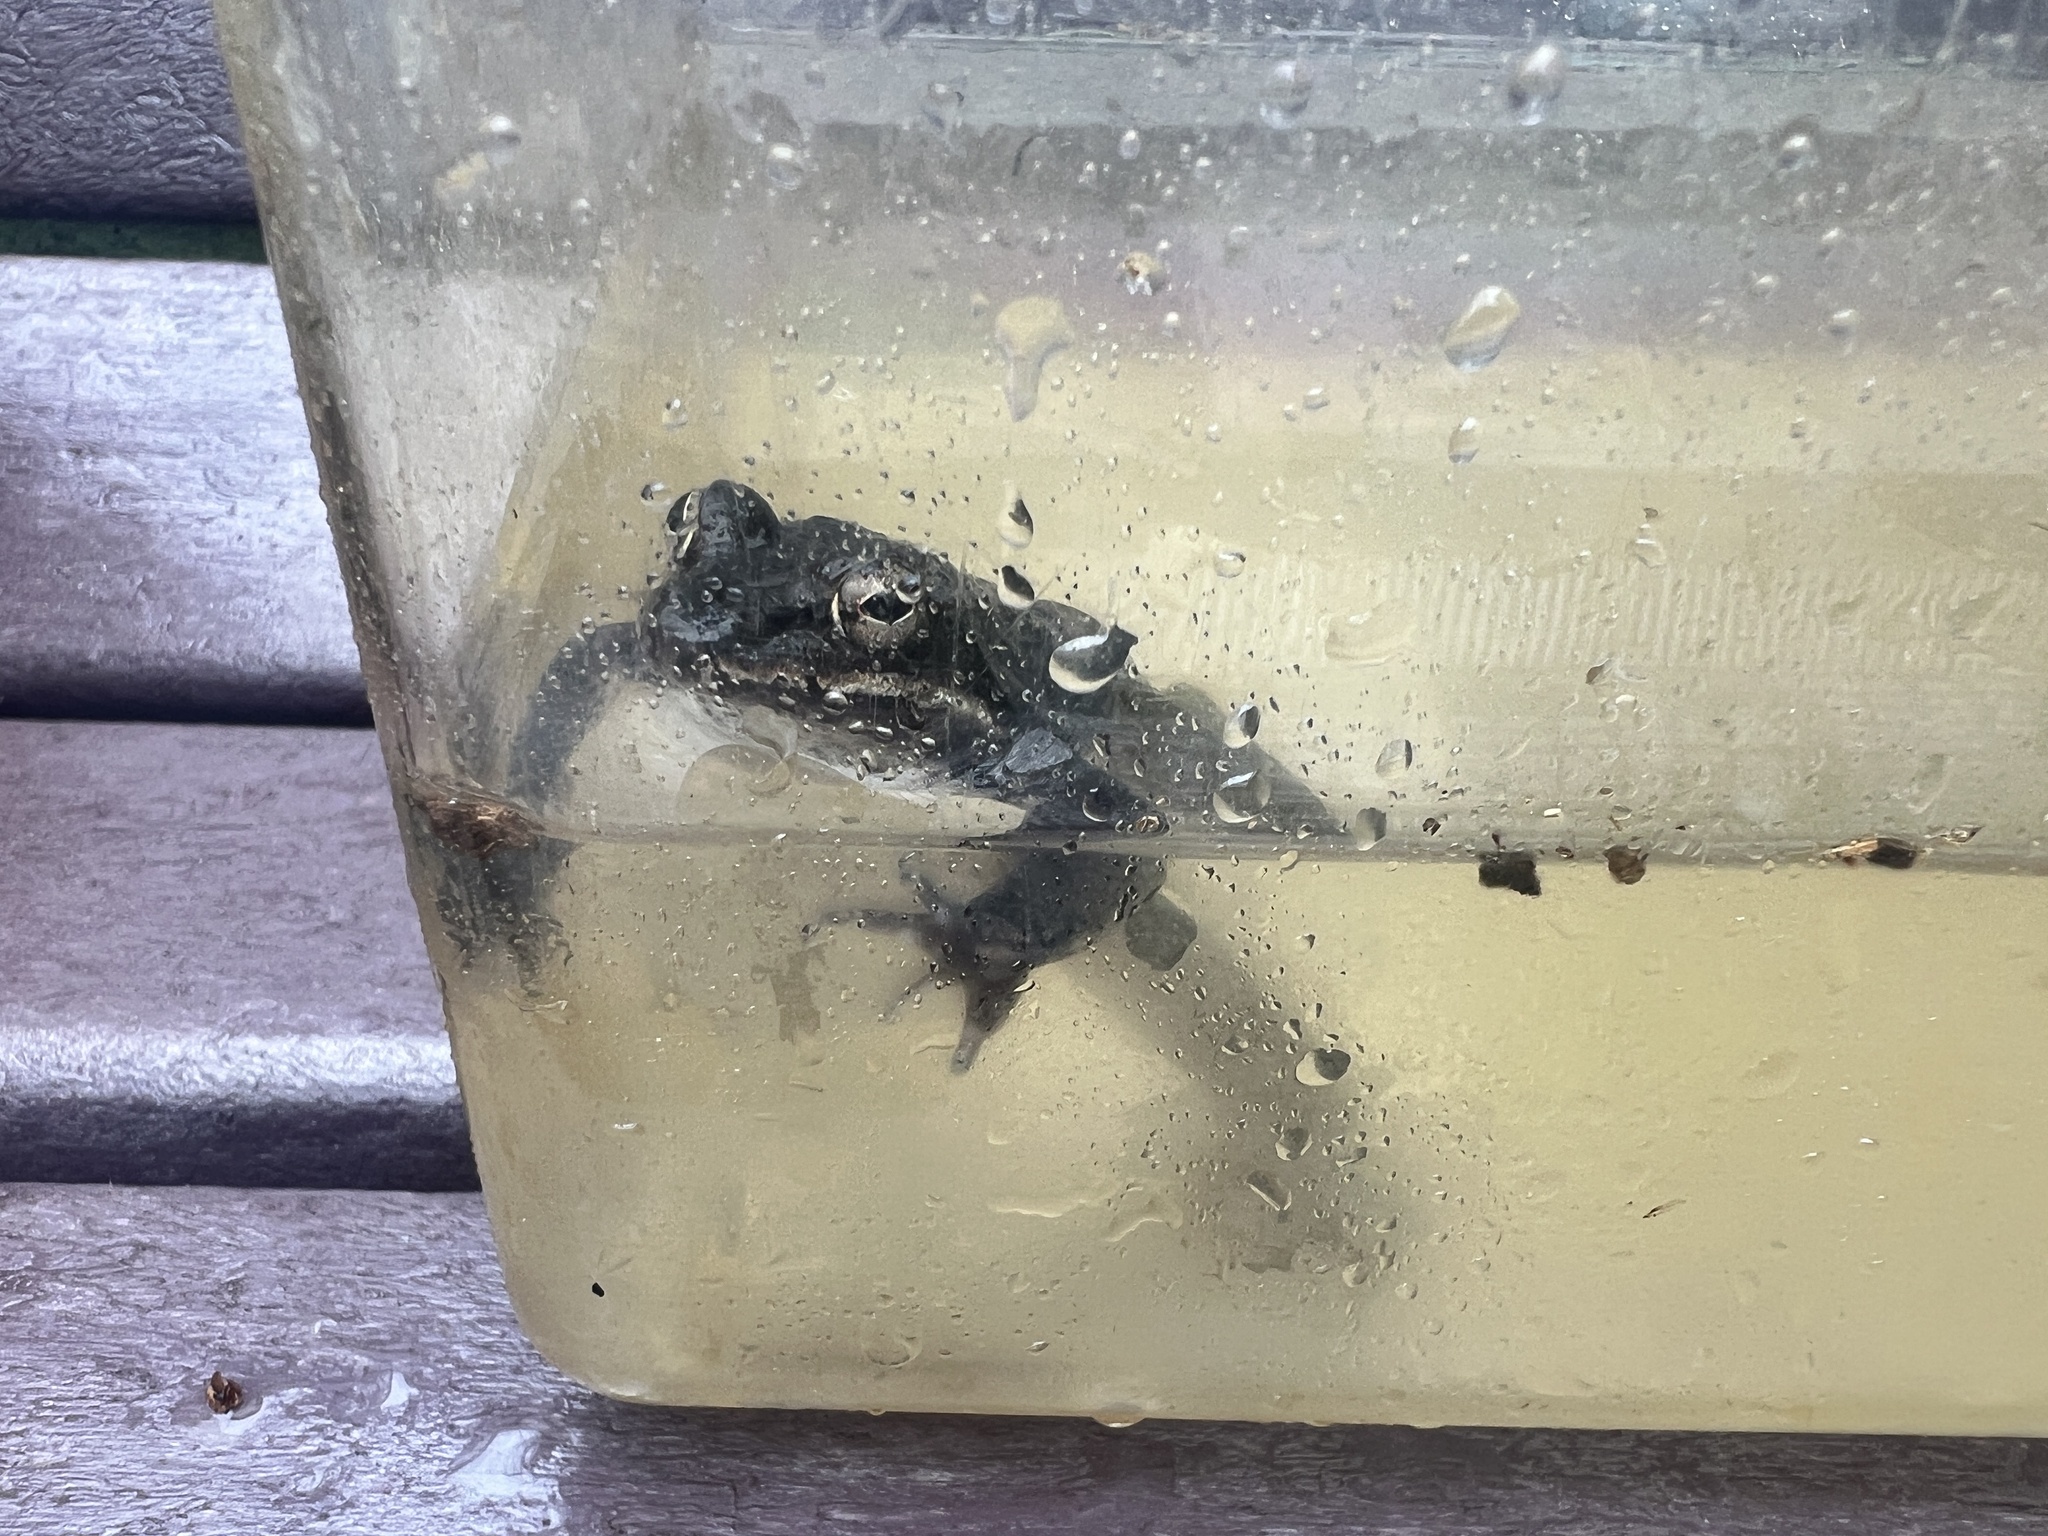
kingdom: Animalia
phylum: Chordata
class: Amphibia
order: Anura
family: Ranidae
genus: Lithobates
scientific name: Lithobates sylvaticus
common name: Wood frog
